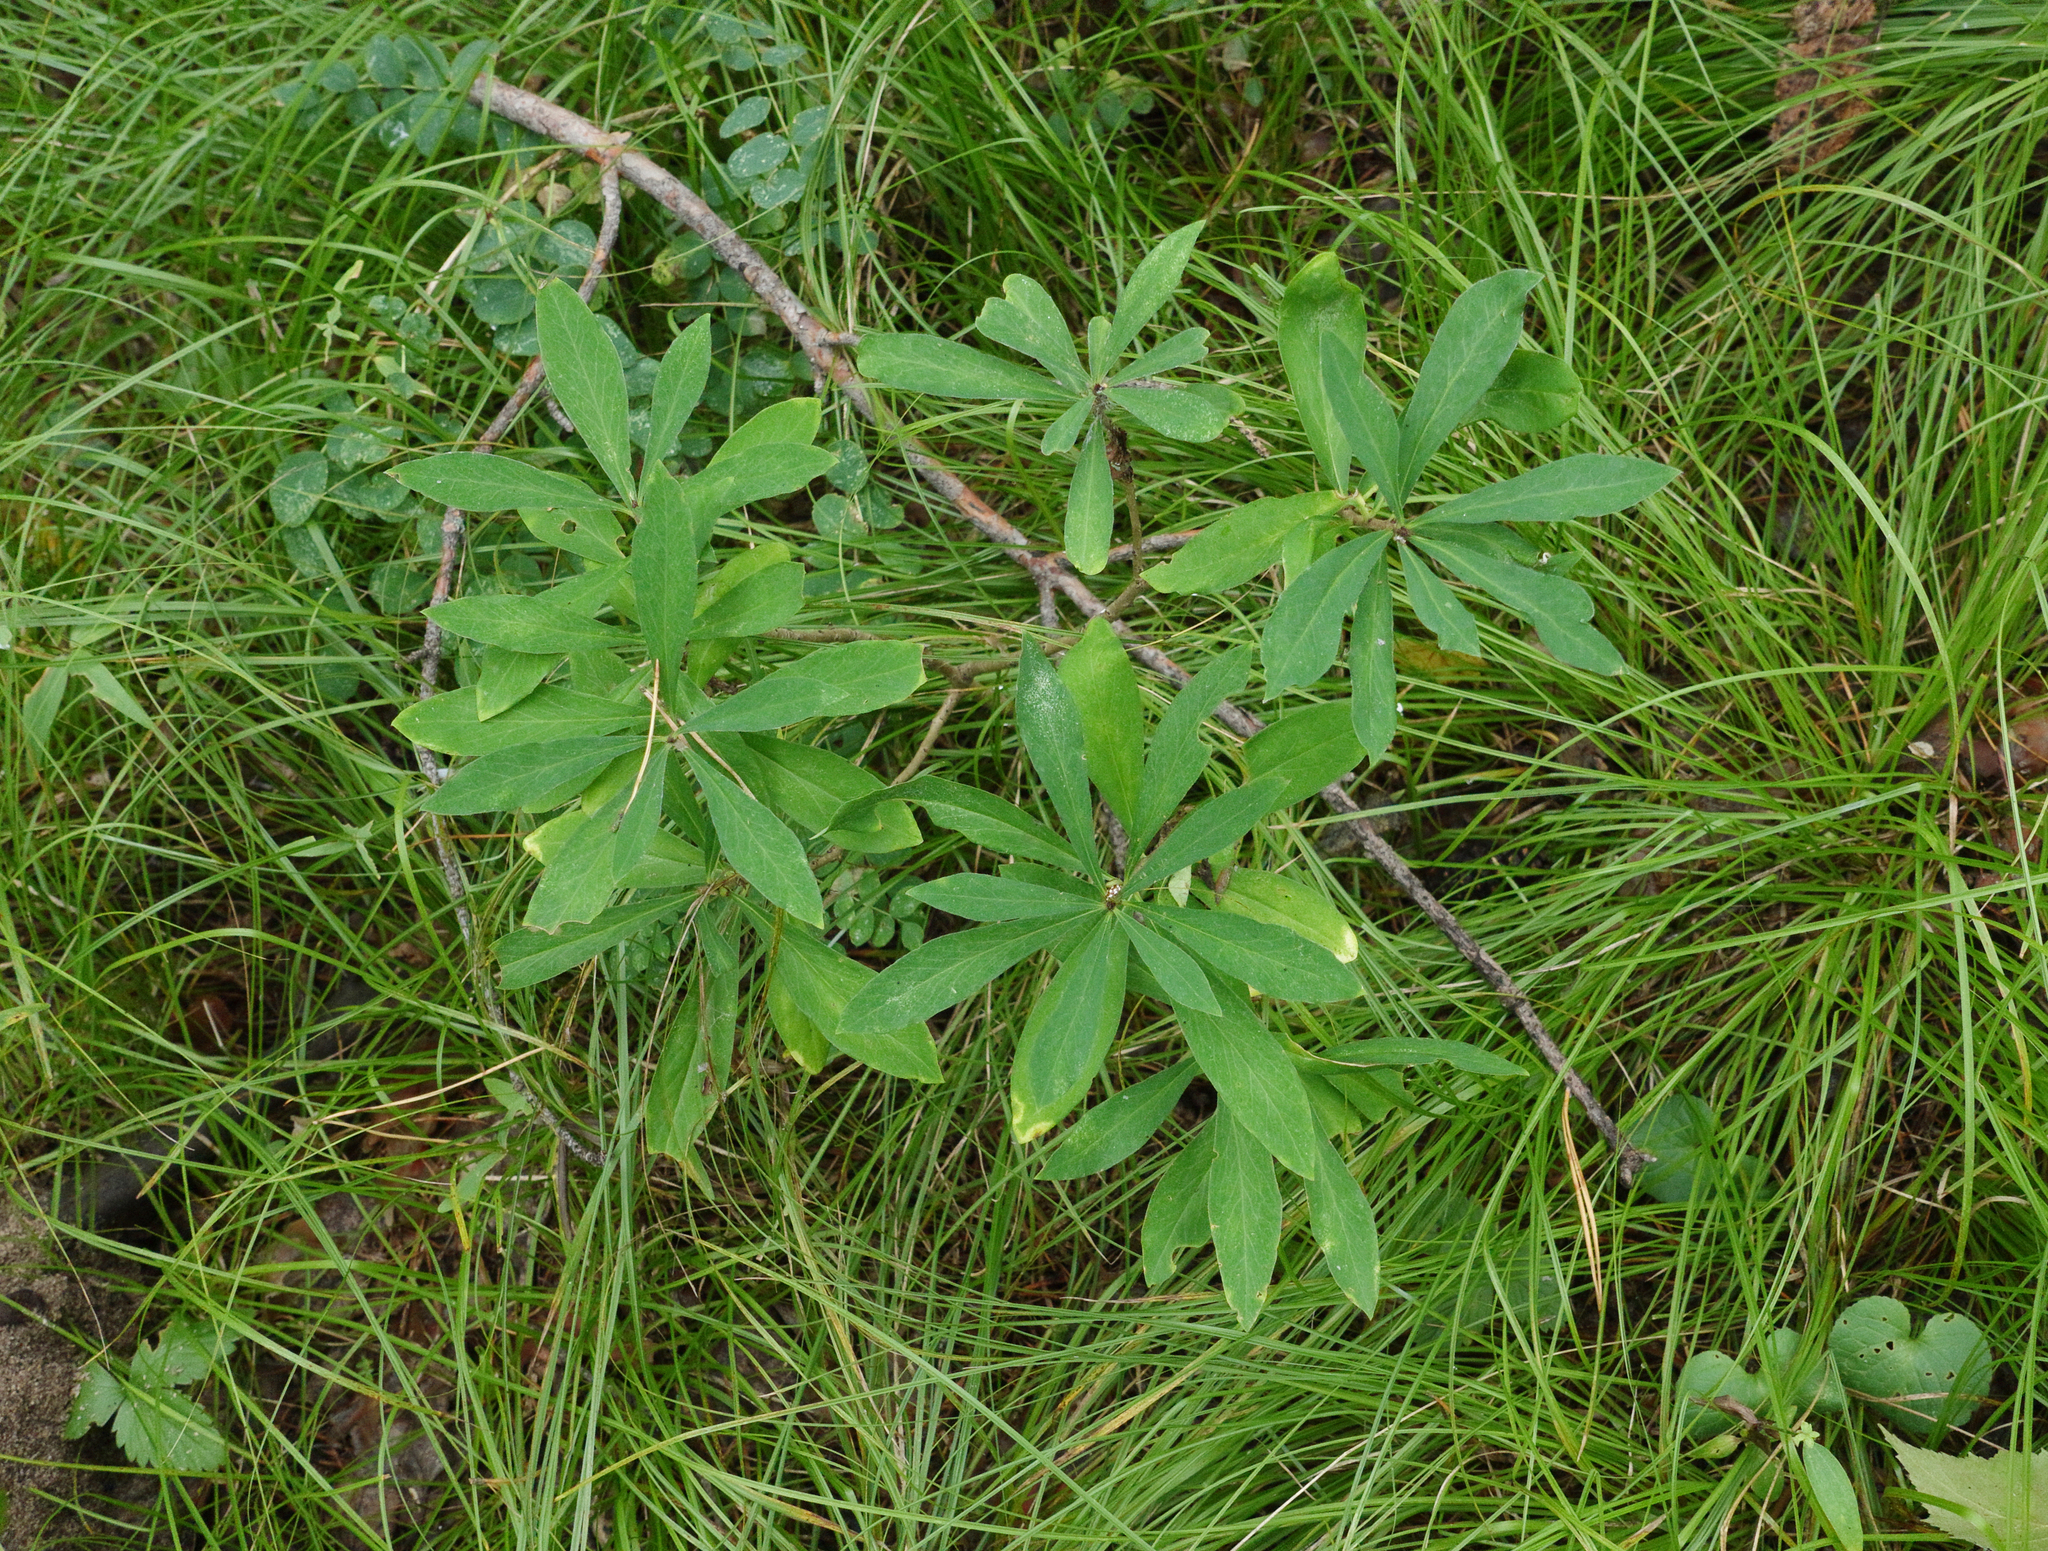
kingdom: Plantae
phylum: Tracheophyta
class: Magnoliopsida
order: Malvales
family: Thymelaeaceae
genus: Daphne
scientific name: Daphne mezereum
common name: Mezereon
